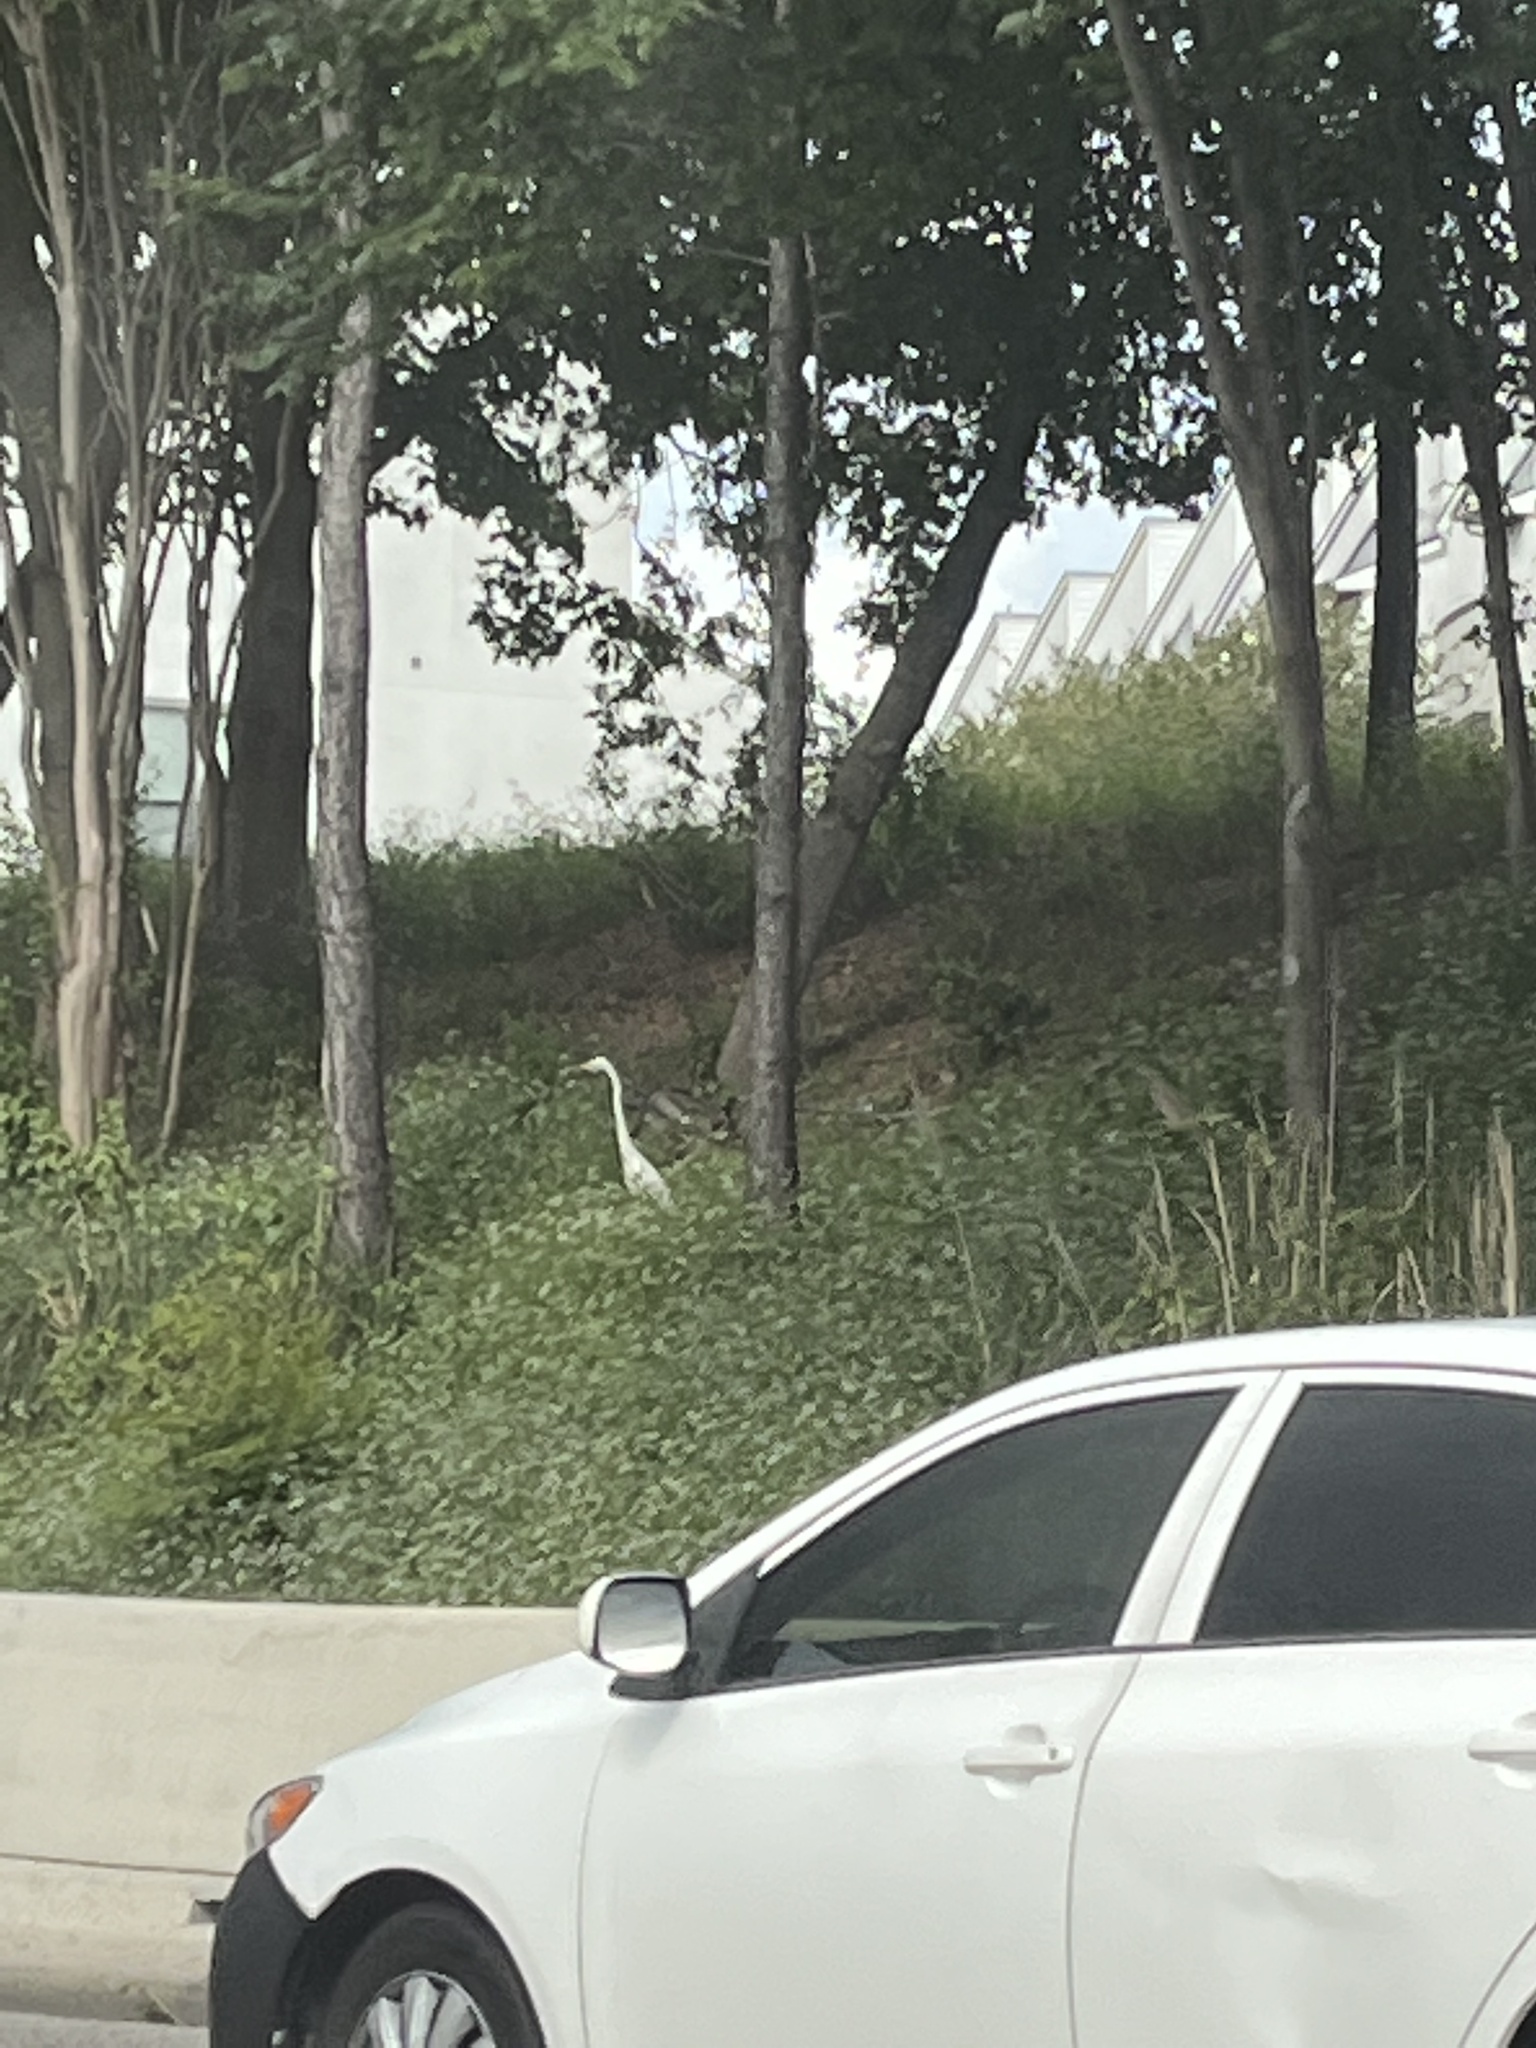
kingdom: Animalia
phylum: Chordata
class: Aves
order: Pelecaniformes
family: Ardeidae
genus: Ardea
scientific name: Ardea alba
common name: Great egret
